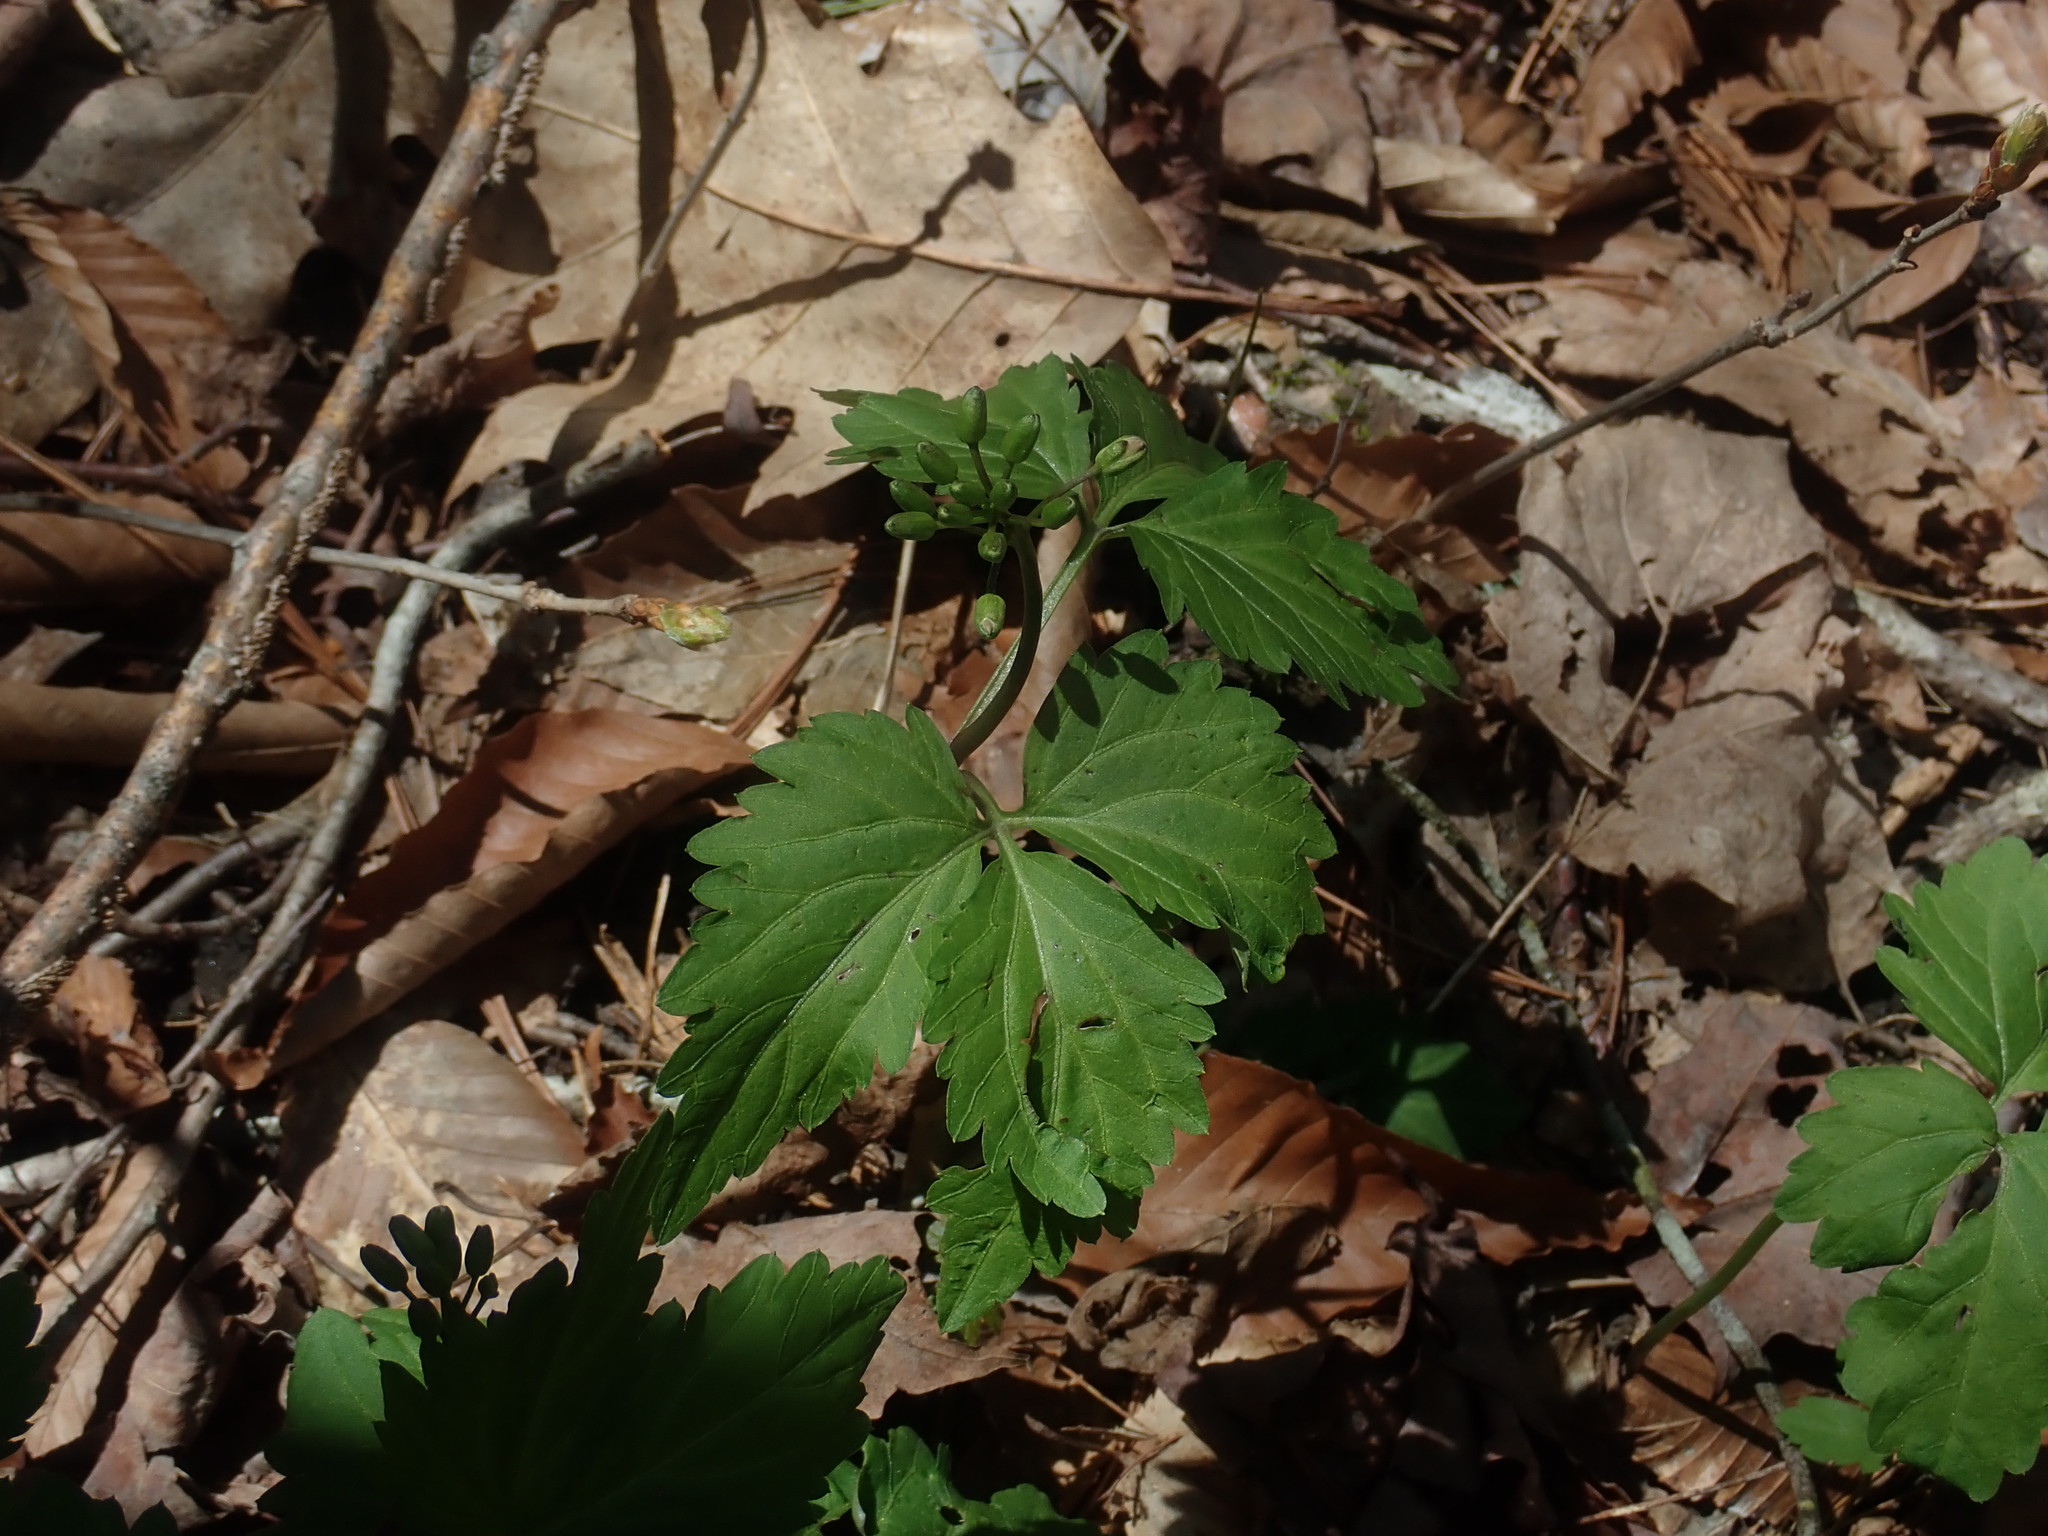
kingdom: Plantae
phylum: Tracheophyta
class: Magnoliopsida
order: Brassicales
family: Brassicaceae
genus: Cardamine
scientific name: Cardamine diphylla
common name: Broad-leaved toothwort
